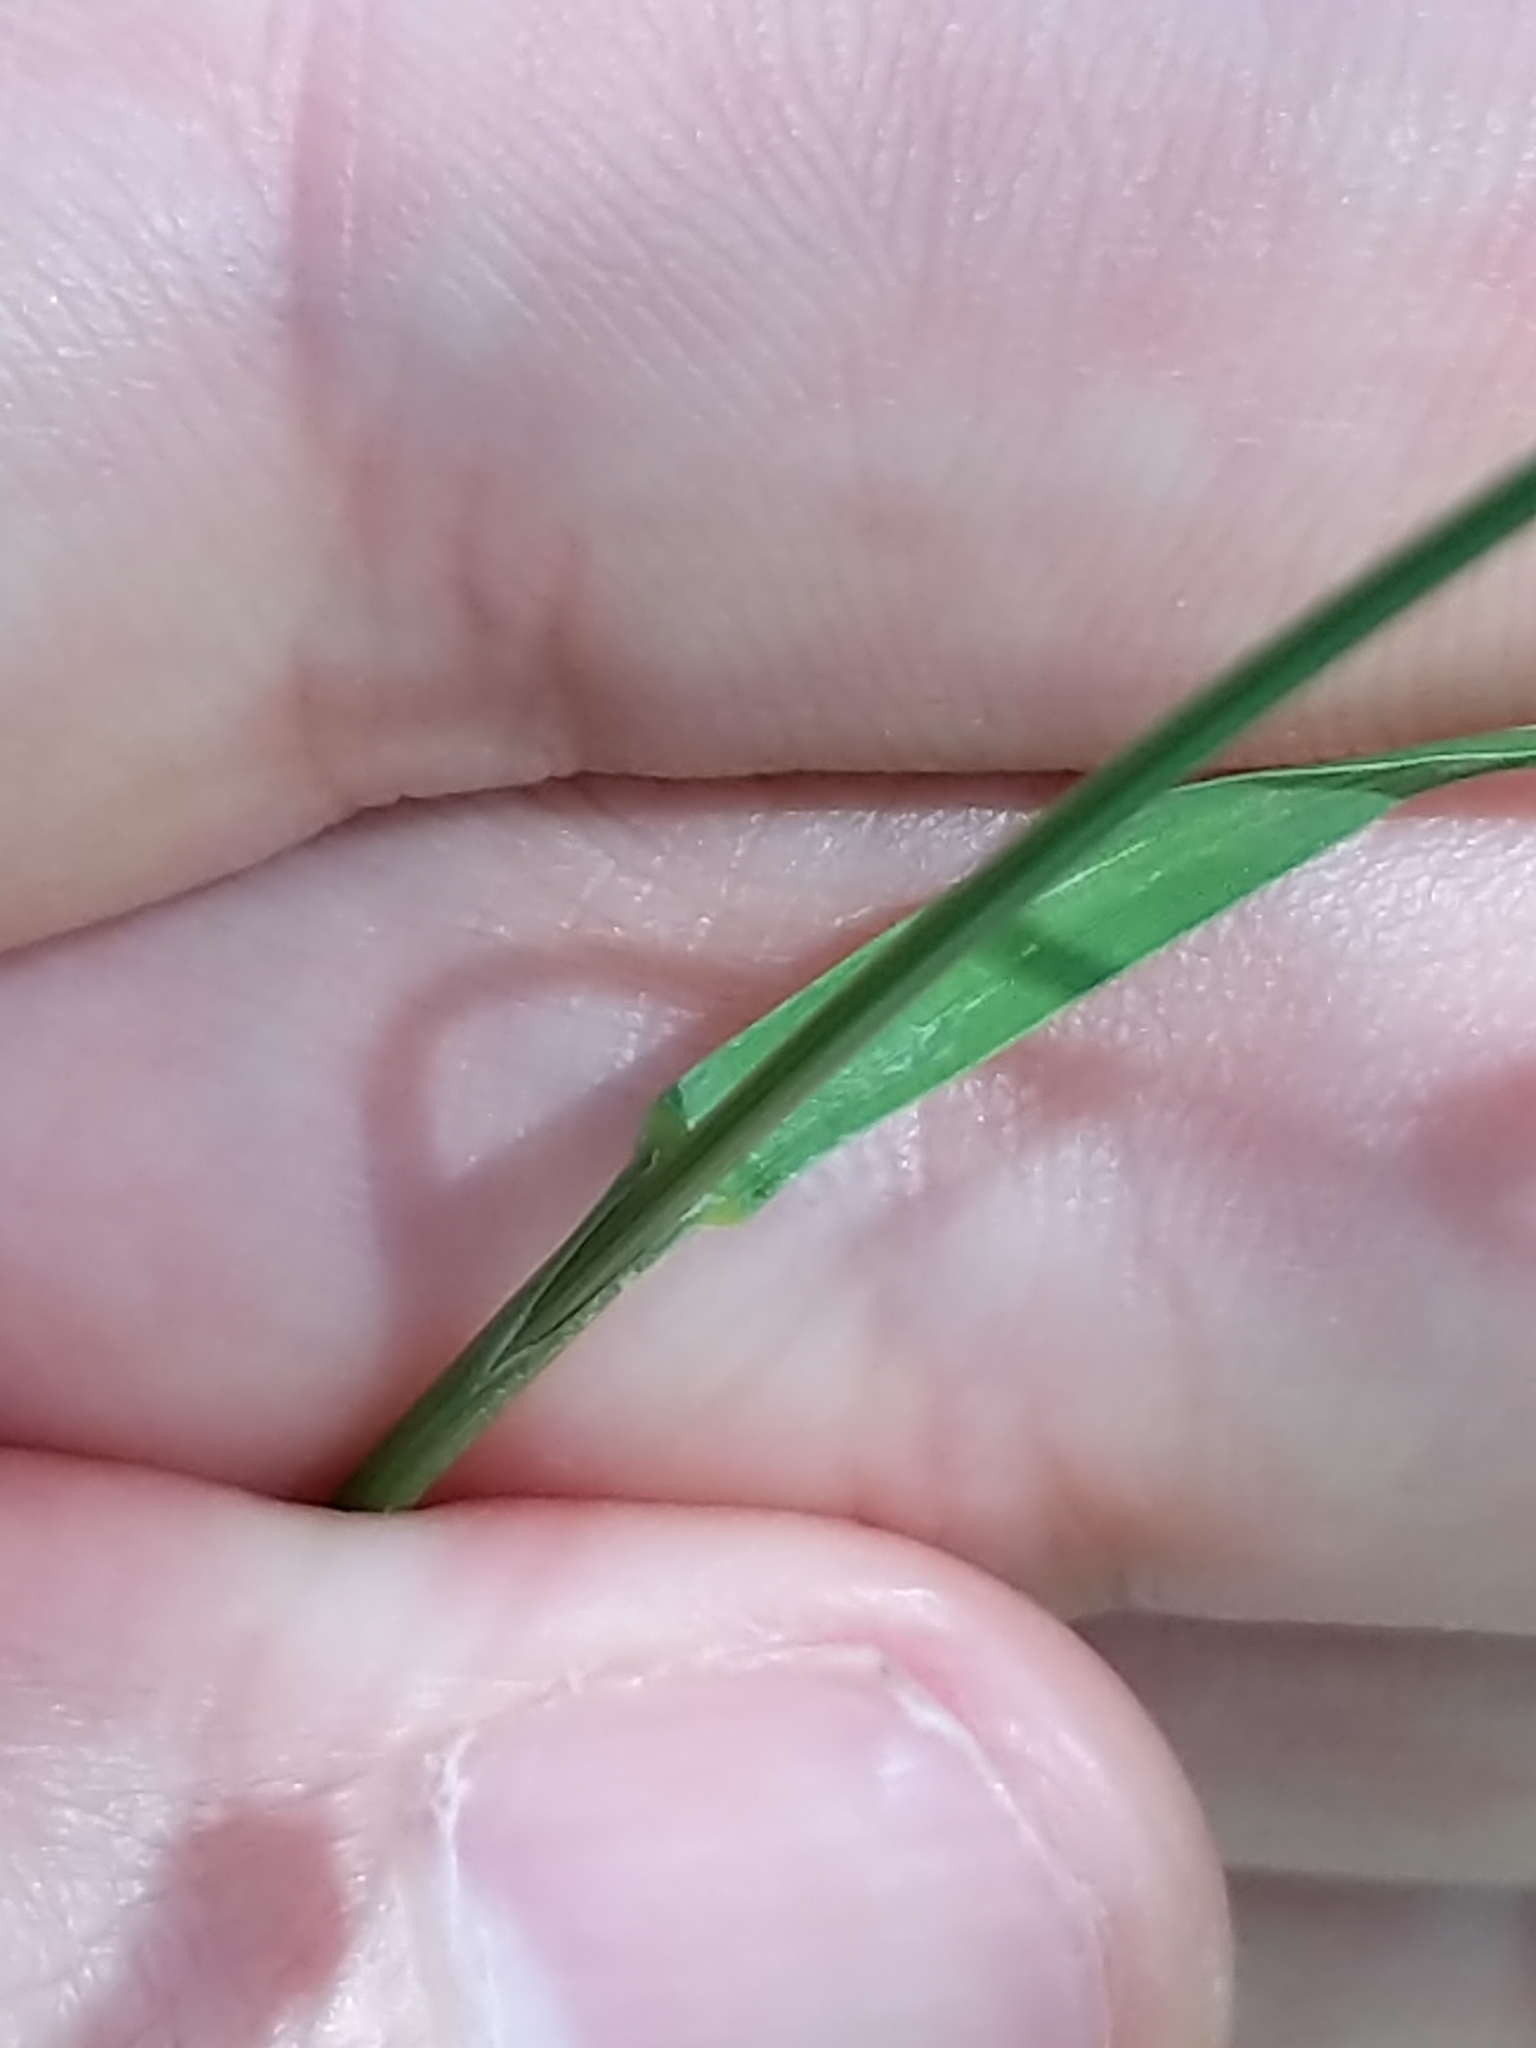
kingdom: Plantae
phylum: Tracheophyta
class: Liliopsida
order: Poales
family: Poaceae
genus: Glyceria
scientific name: Glyceria canadensis
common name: Canada mannagrass
